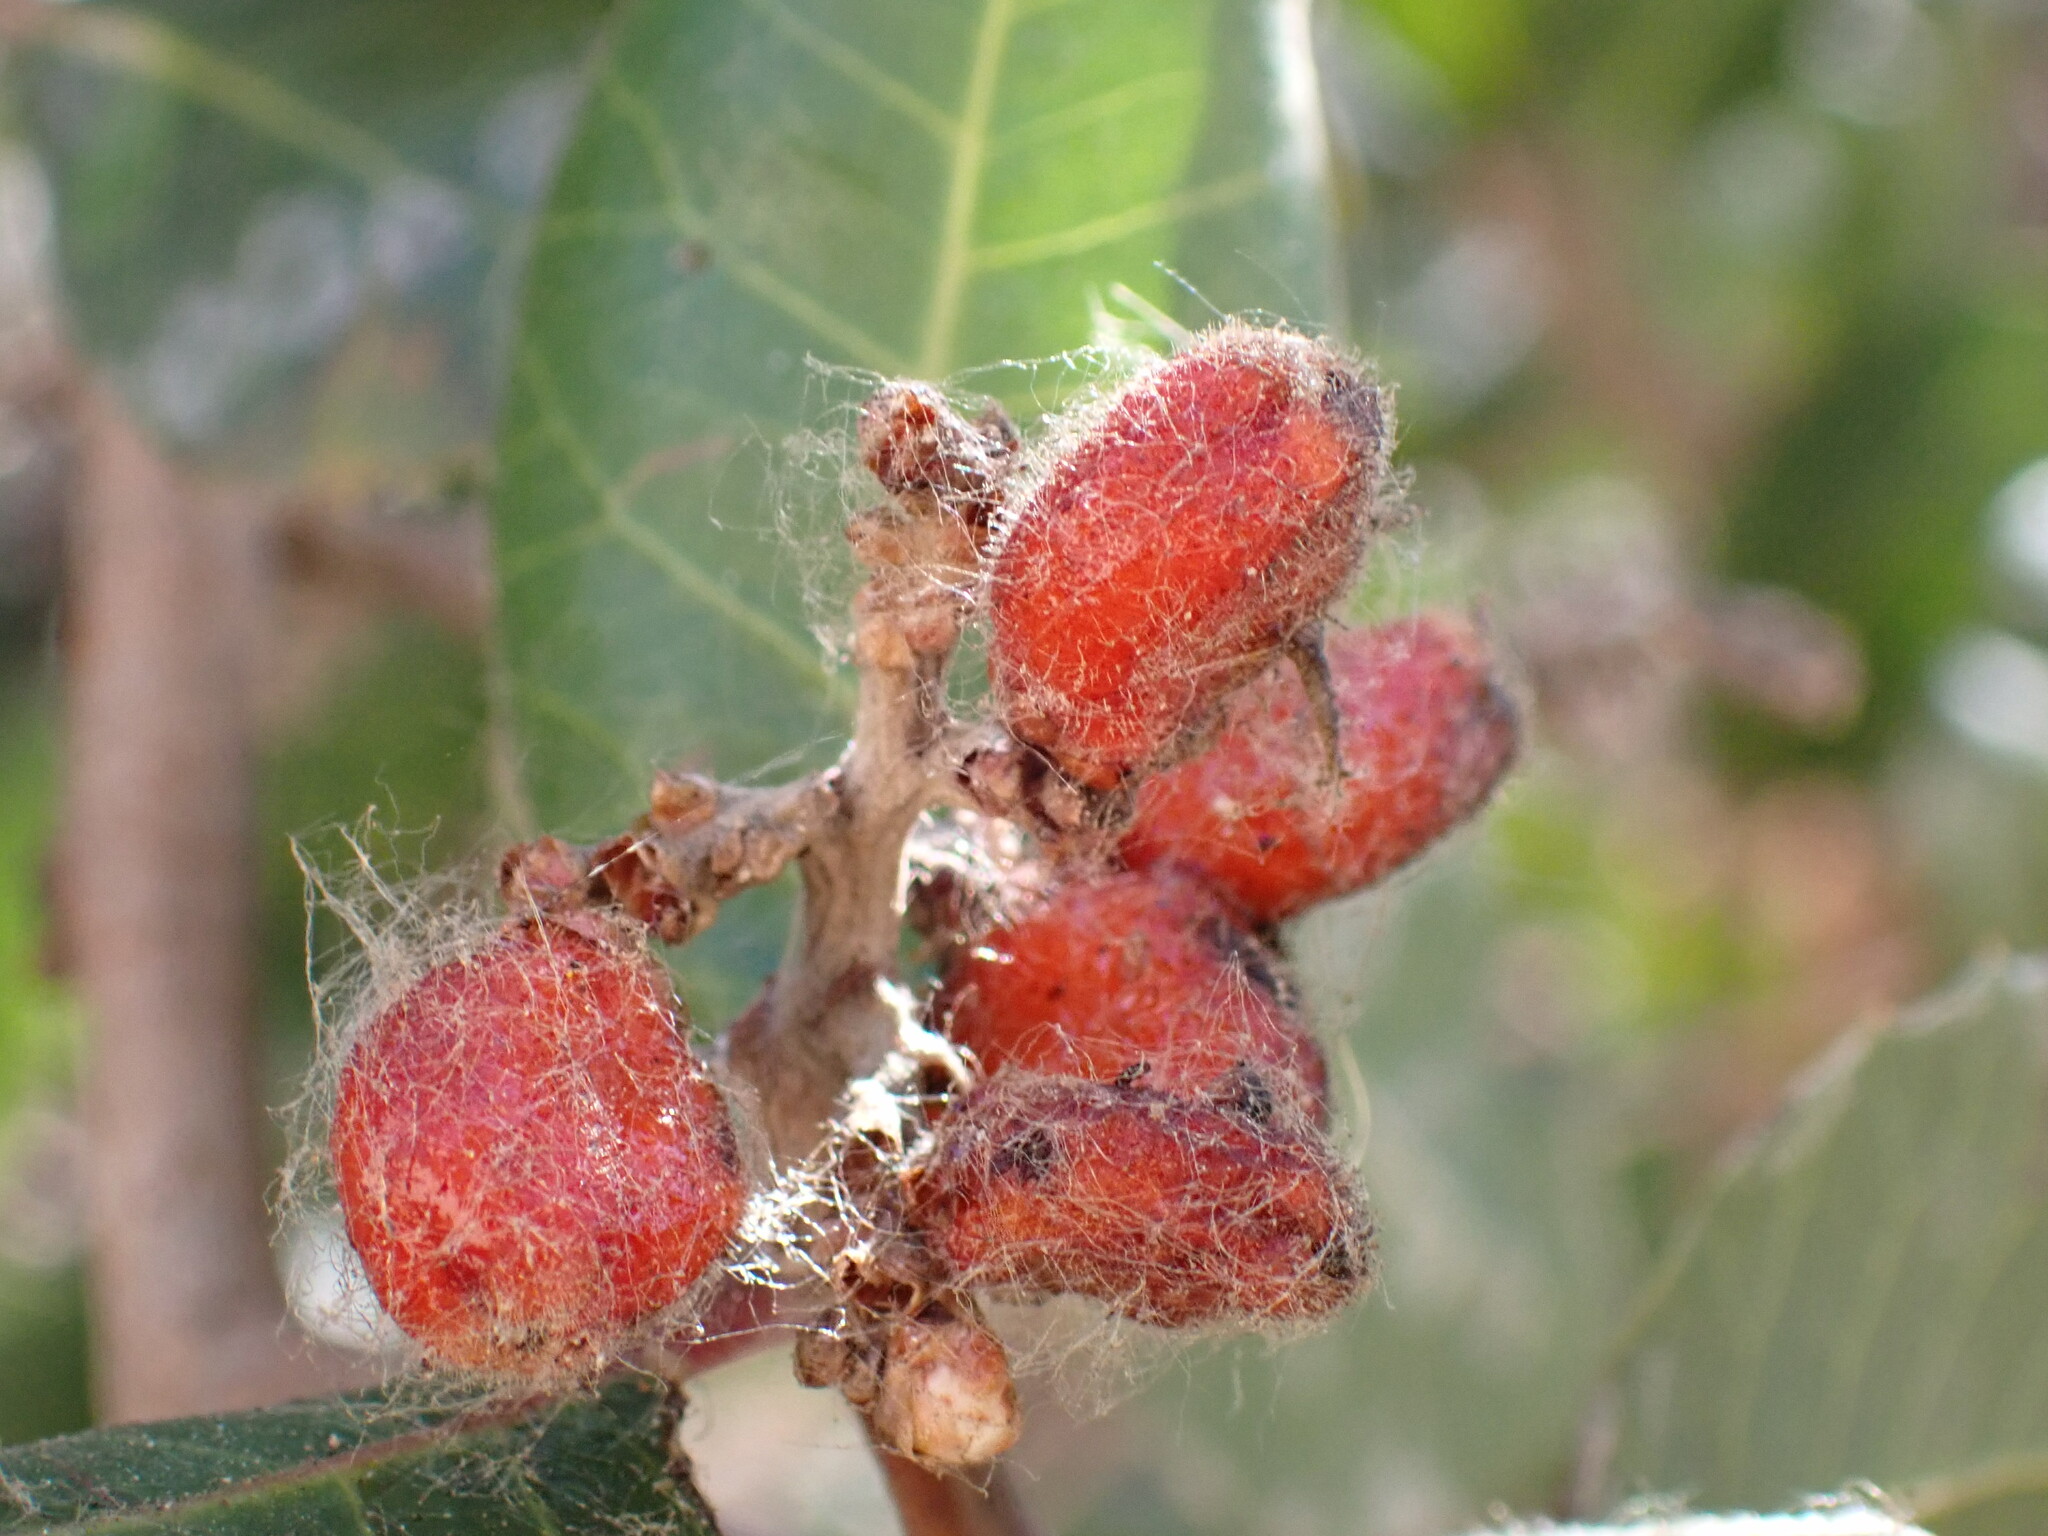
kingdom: Plantae
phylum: Tracheophyta
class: Magnoliopsida
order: Sapindales
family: Anacardiaceae
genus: Rhus
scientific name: Rhus integrifolia
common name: Lemonade sumac
